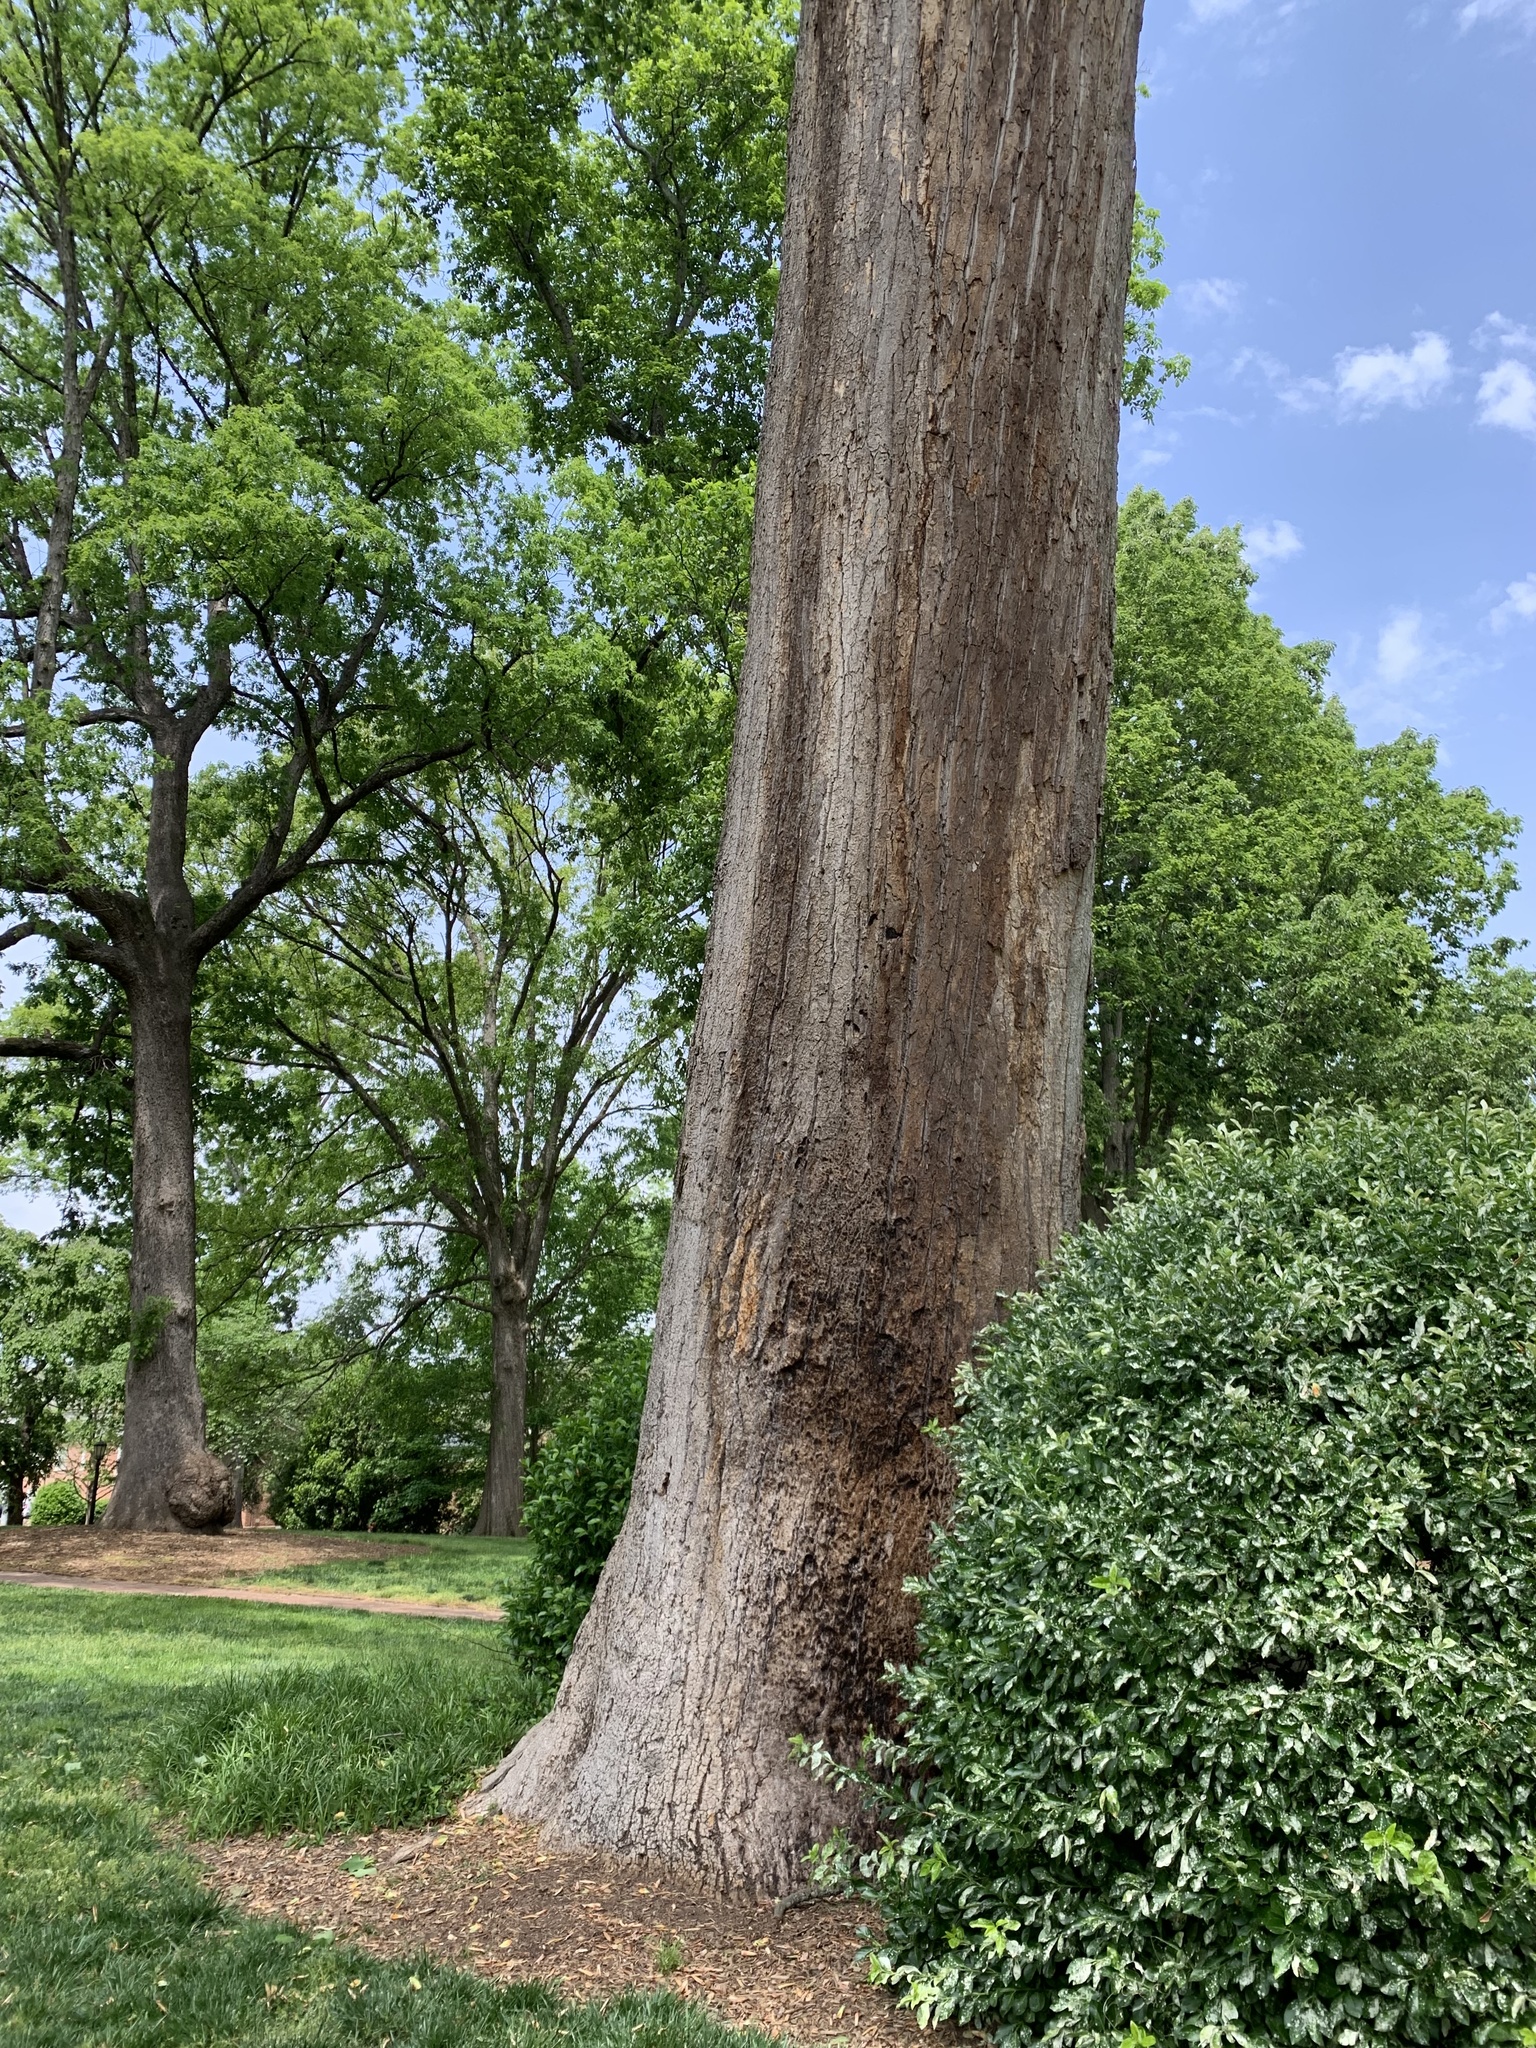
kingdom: Plantae
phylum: Tracheophyta
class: Magnoliopsida
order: Magnoliales
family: Magnoliaceae
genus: Liriodendron
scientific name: Liriodendron tulipifera
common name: Tulip tree
